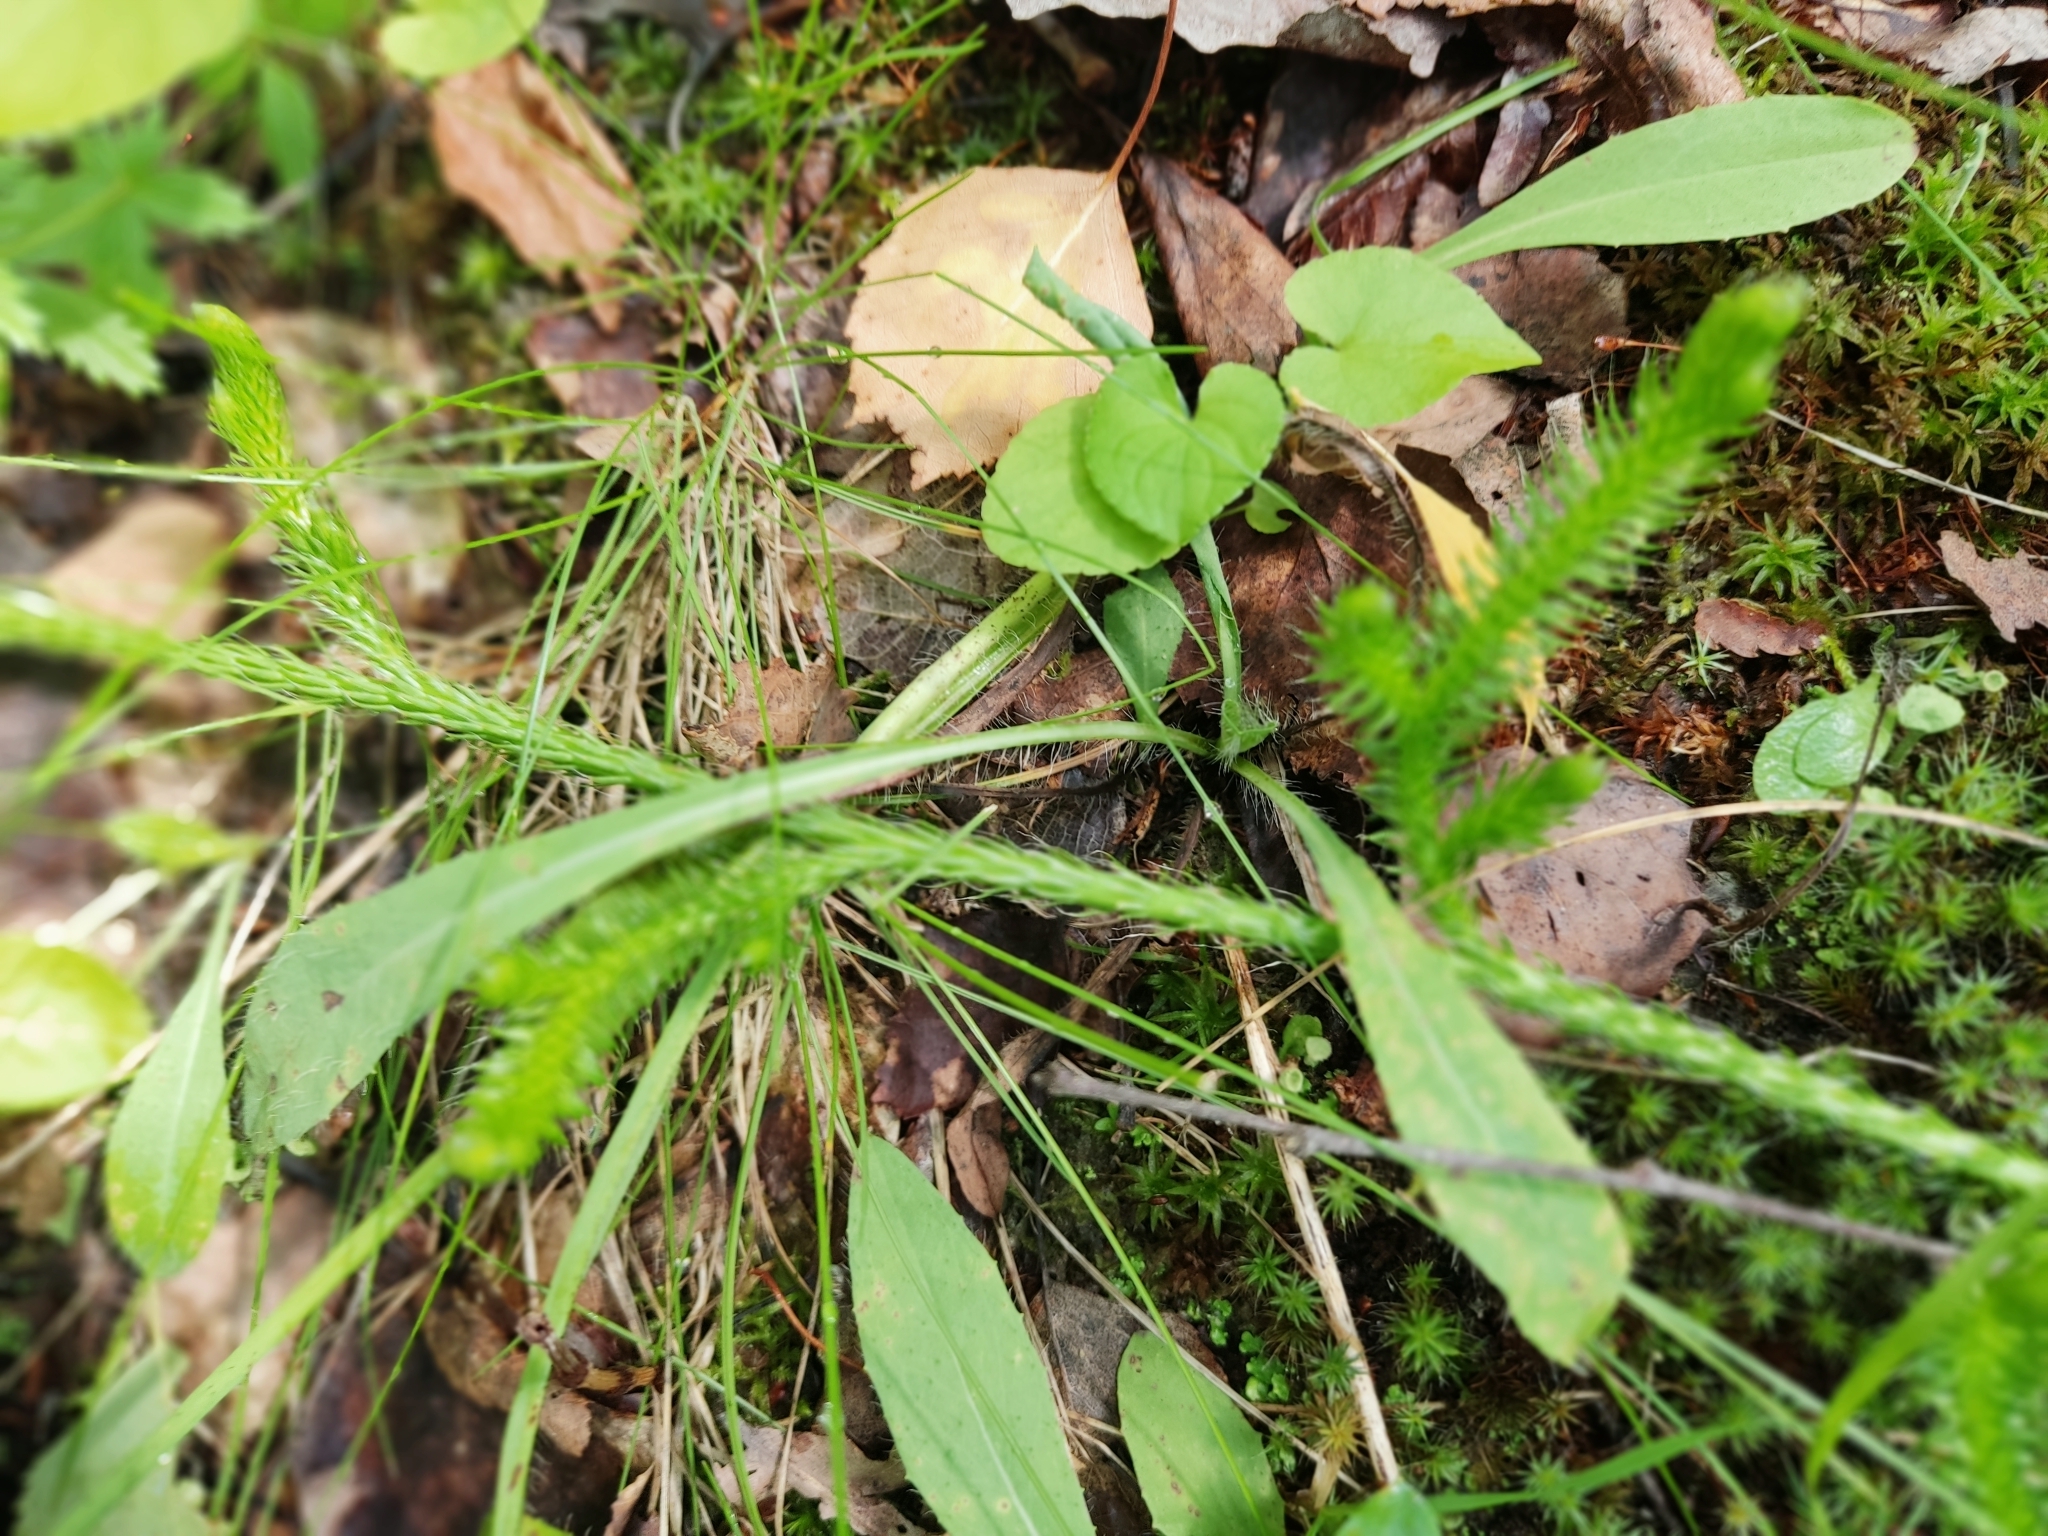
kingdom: Plantae
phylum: Tracheophyta
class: Lycopodiopsida
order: Lycopodiales
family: Lycopodiaceae
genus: Lycopodium
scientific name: Lycopodium clavatum
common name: Stag's-horn clubmoss
